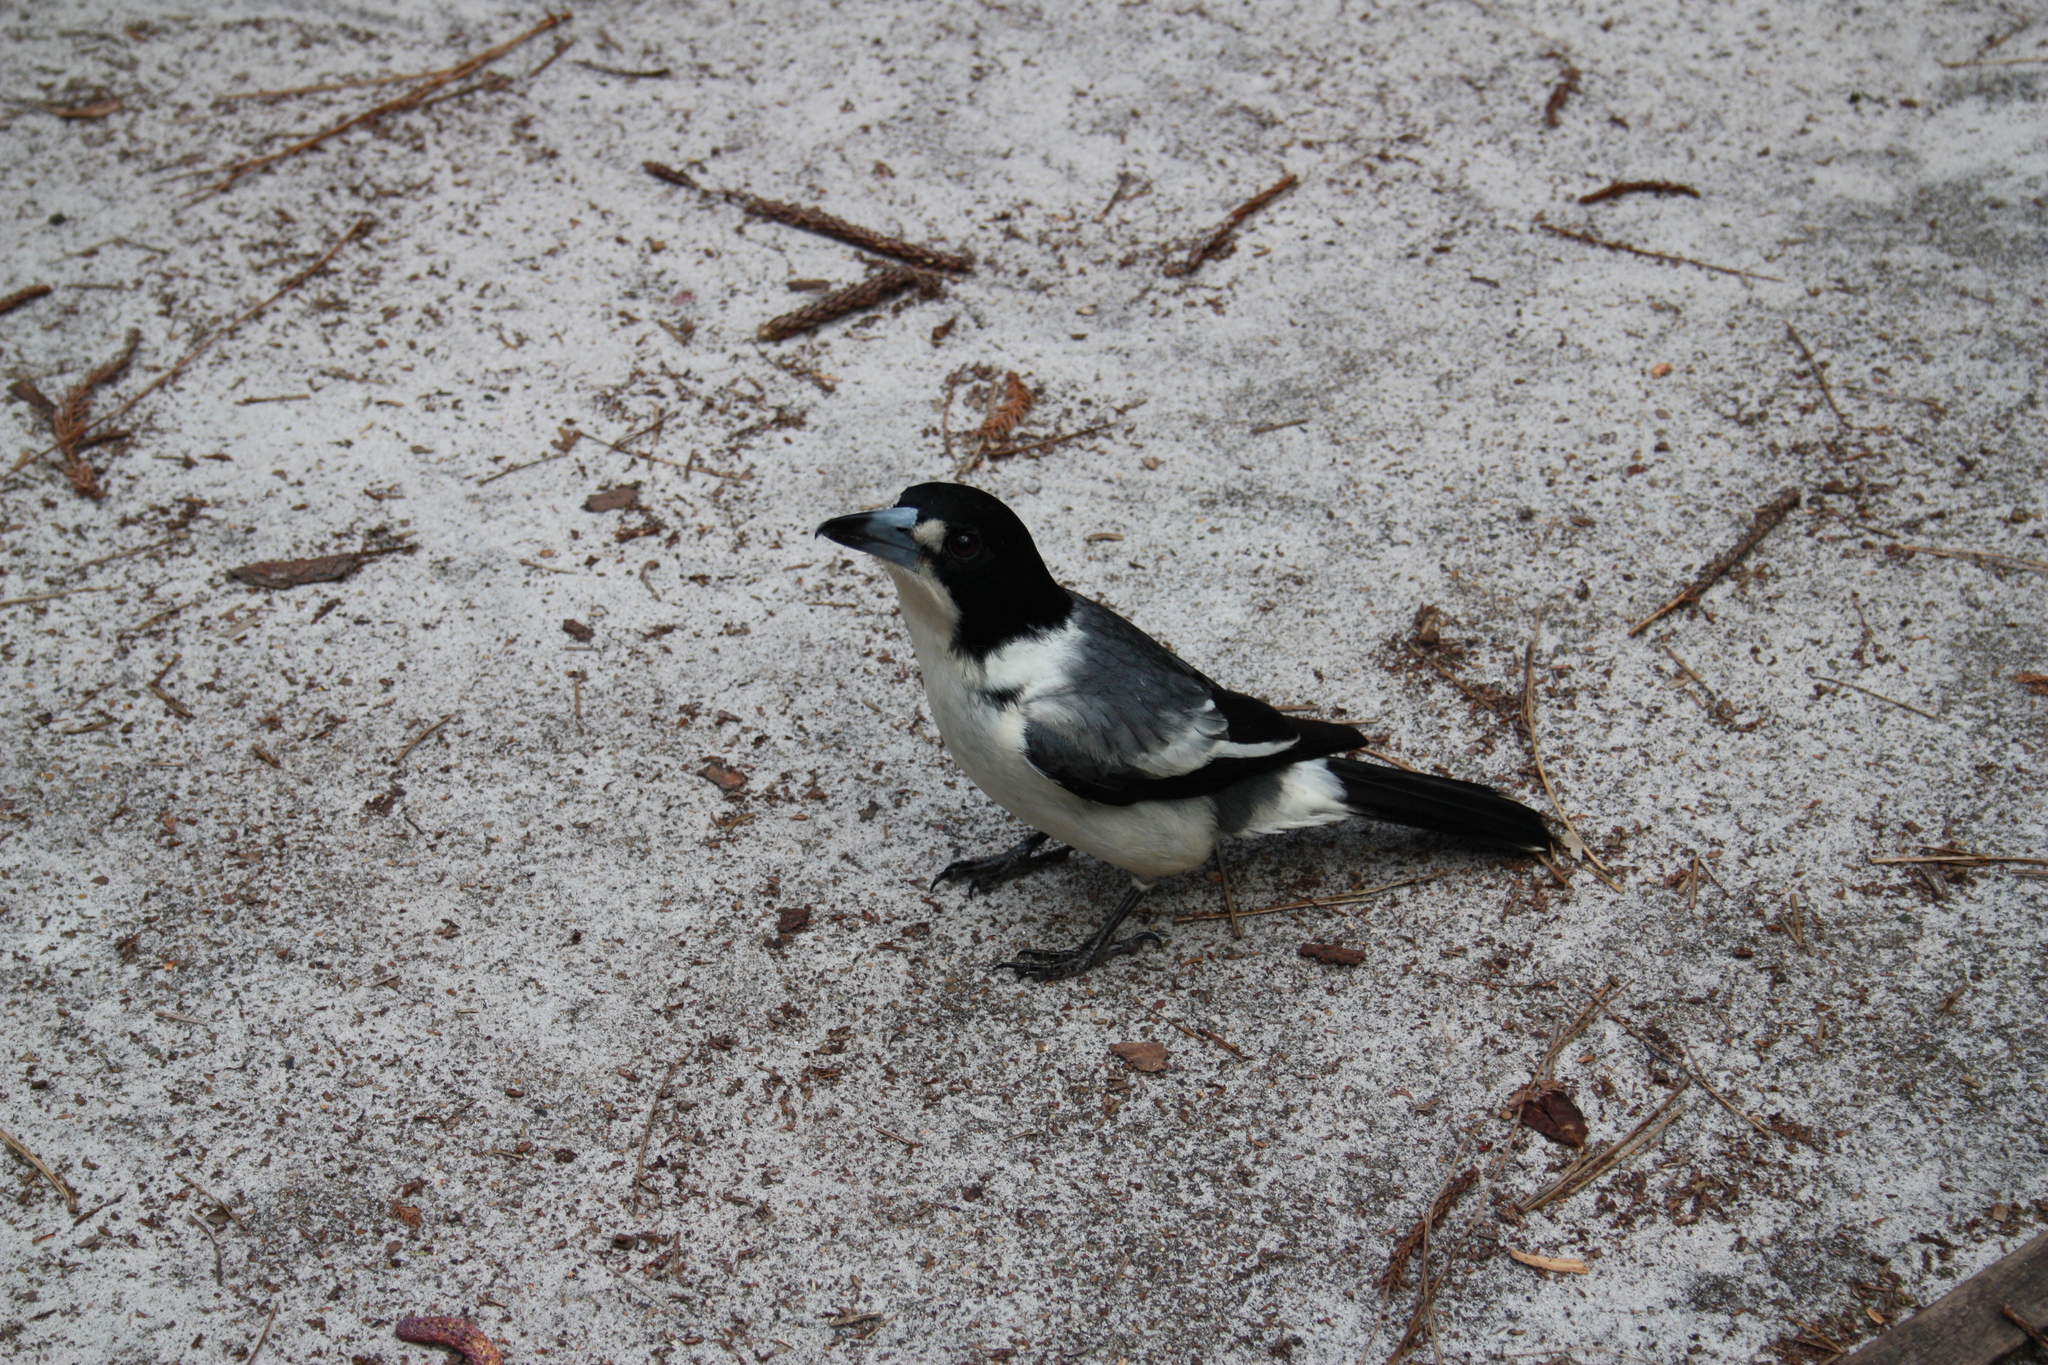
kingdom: Animalia
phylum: Chordata
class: Aves
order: Passeriformes
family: Cracticidae
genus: Cracticus
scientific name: Cracticus torquatus
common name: Grey butcherbird
